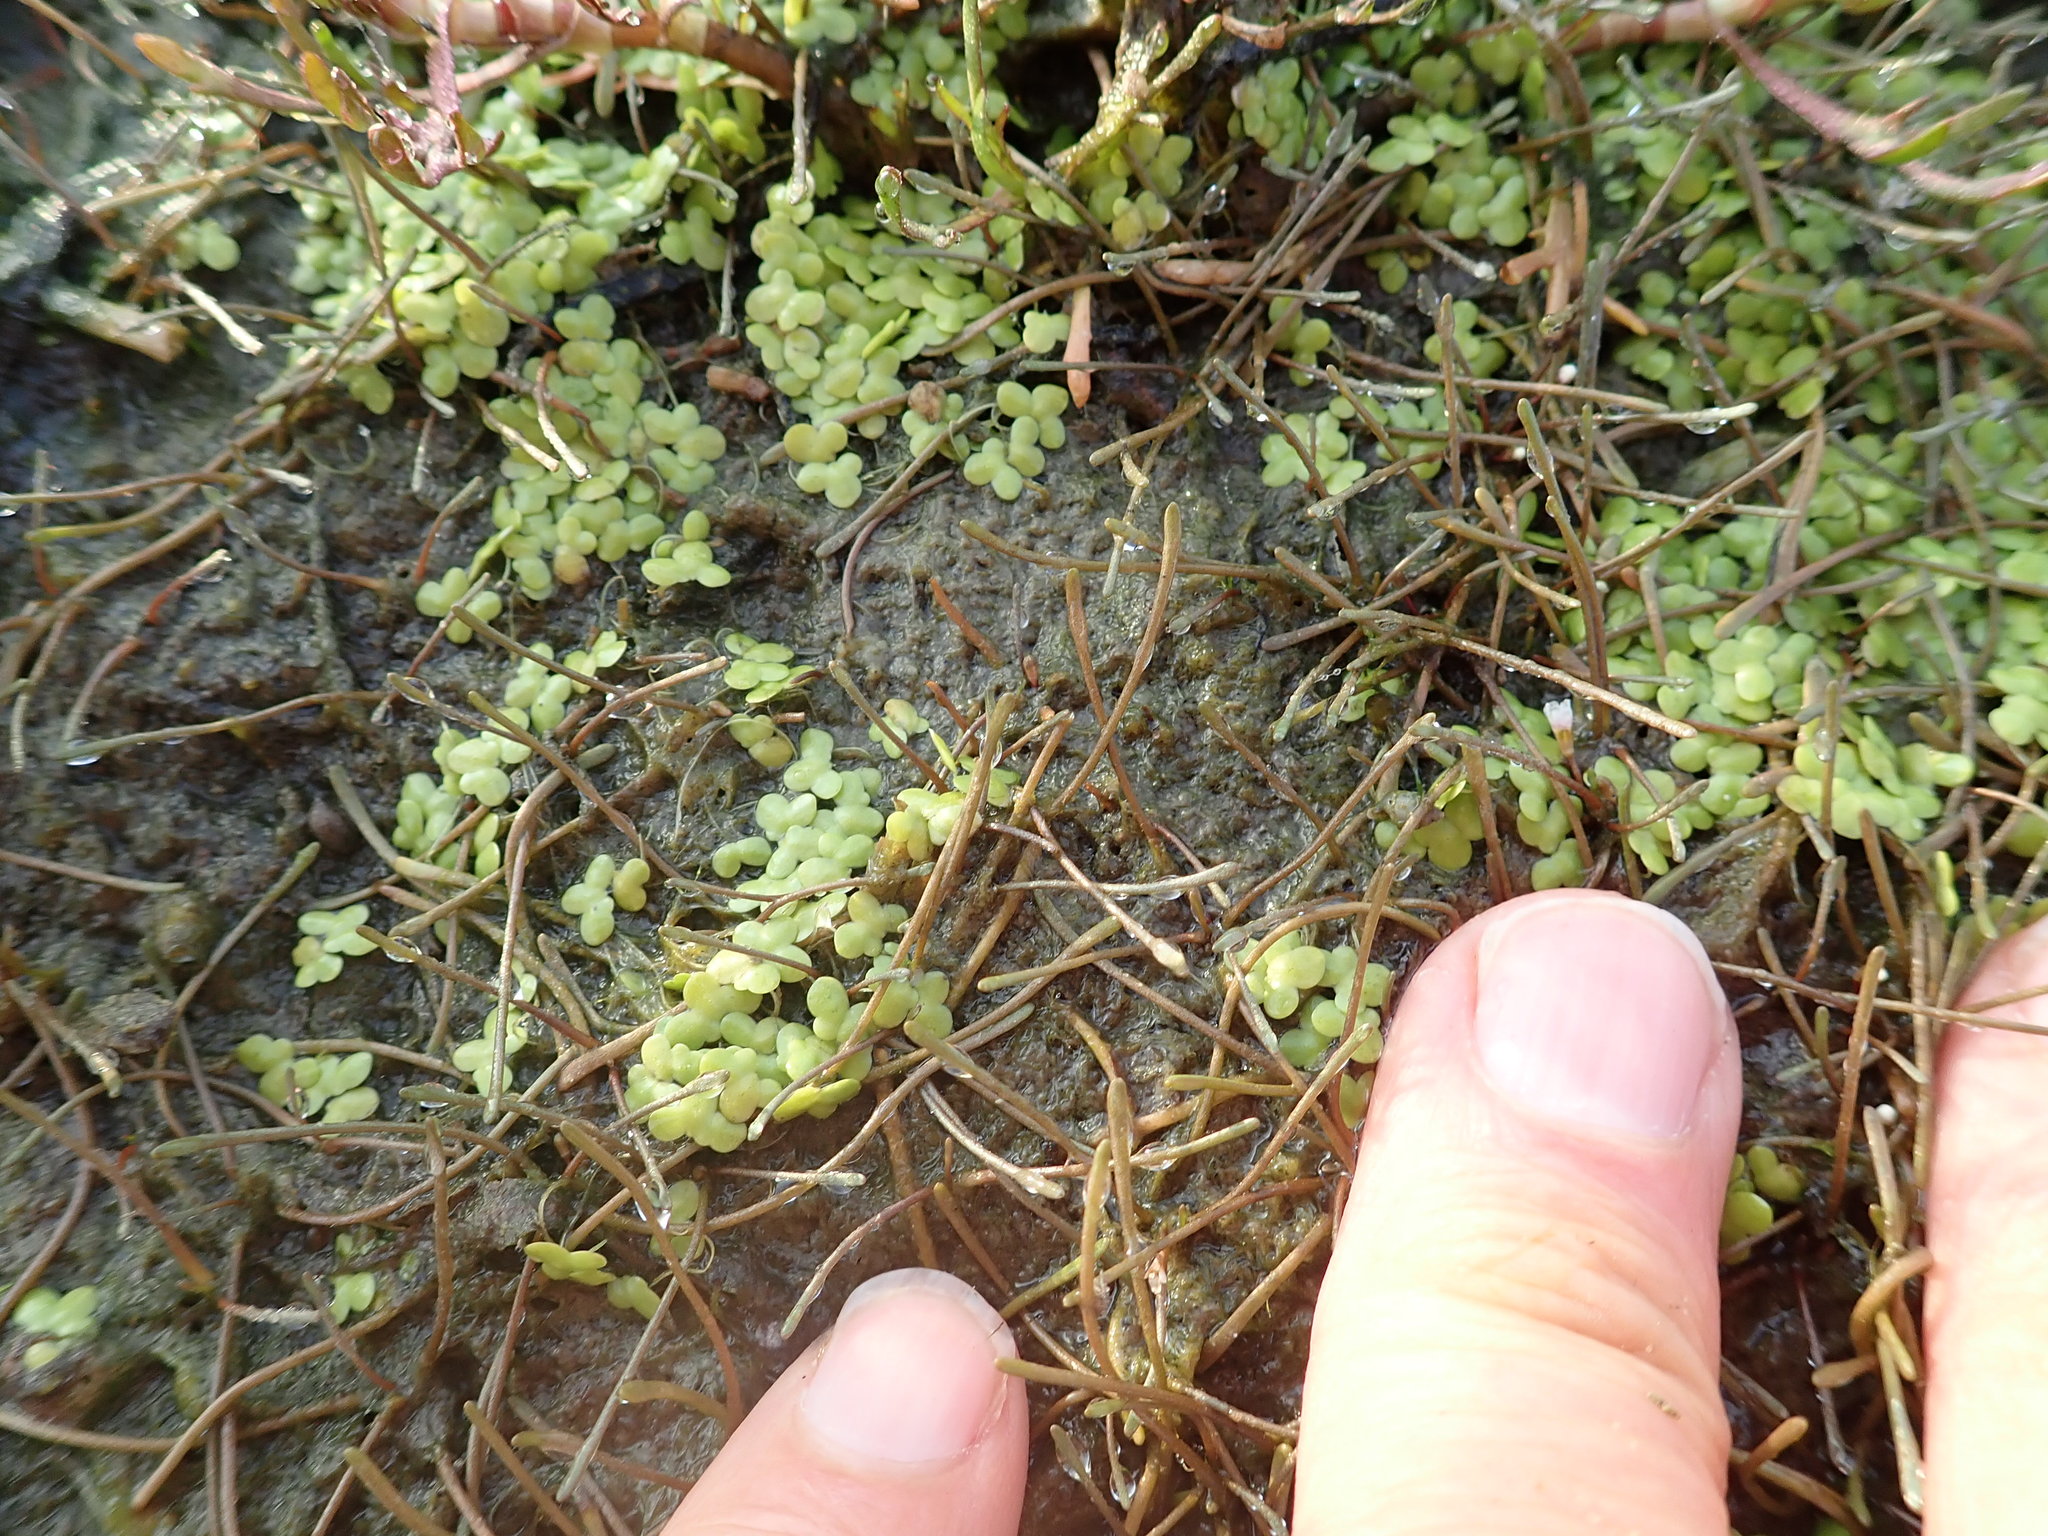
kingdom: Plantae
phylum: Tracheophyta
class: Liliopsida
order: Alismatales
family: Araceae
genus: Lemna
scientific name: Lemna disperma
